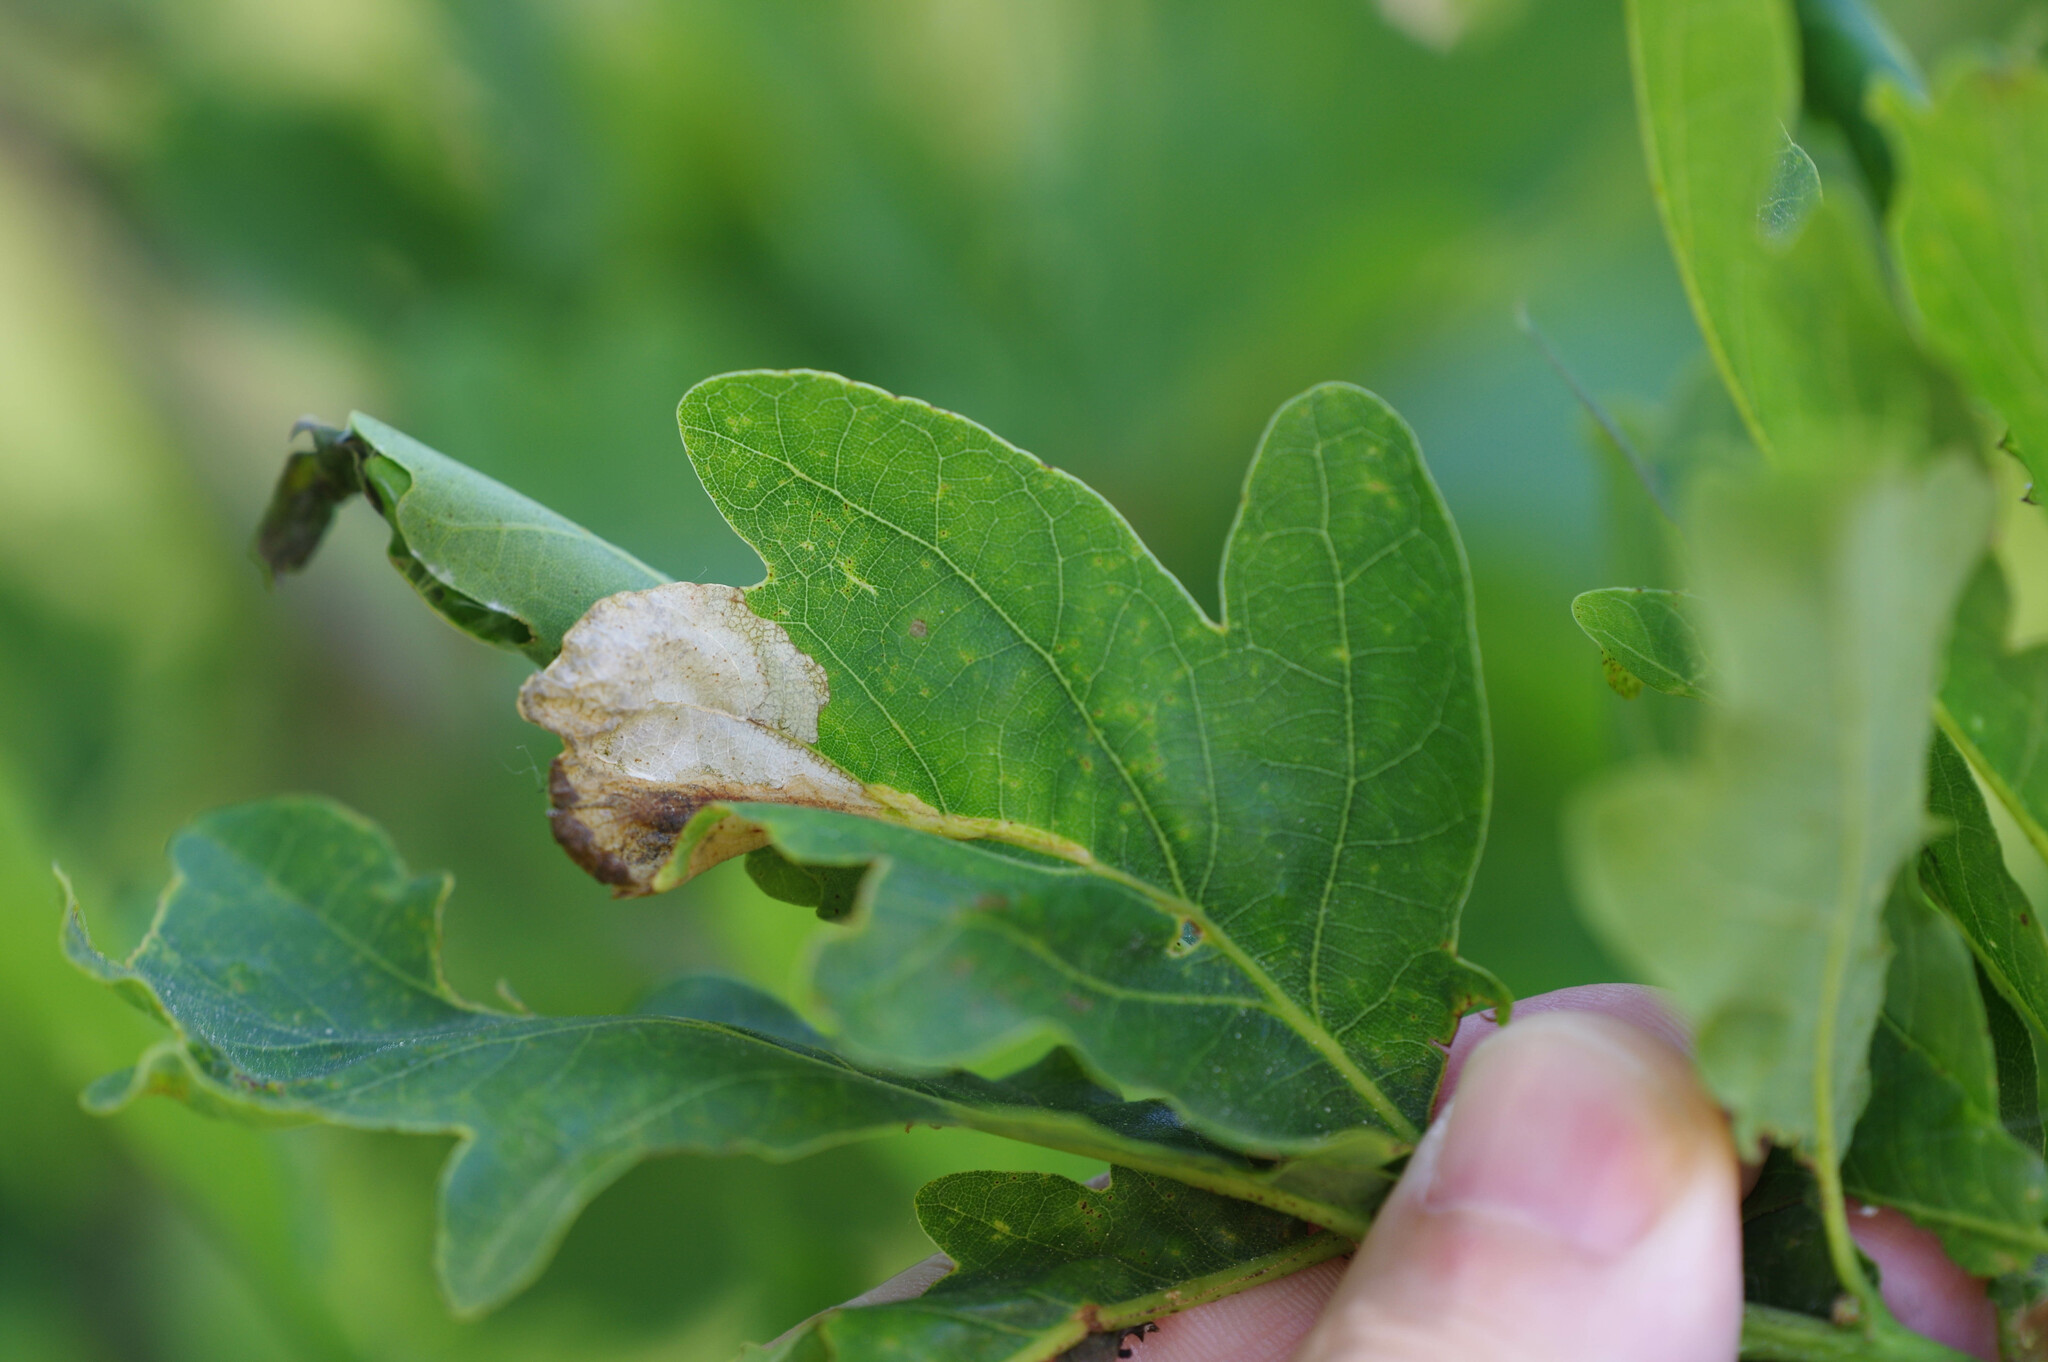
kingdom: Animalia
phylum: Arthropoda
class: Insecta
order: Coleoptera
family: Curculionidae
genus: Orchestes
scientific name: Orchestes quercus
